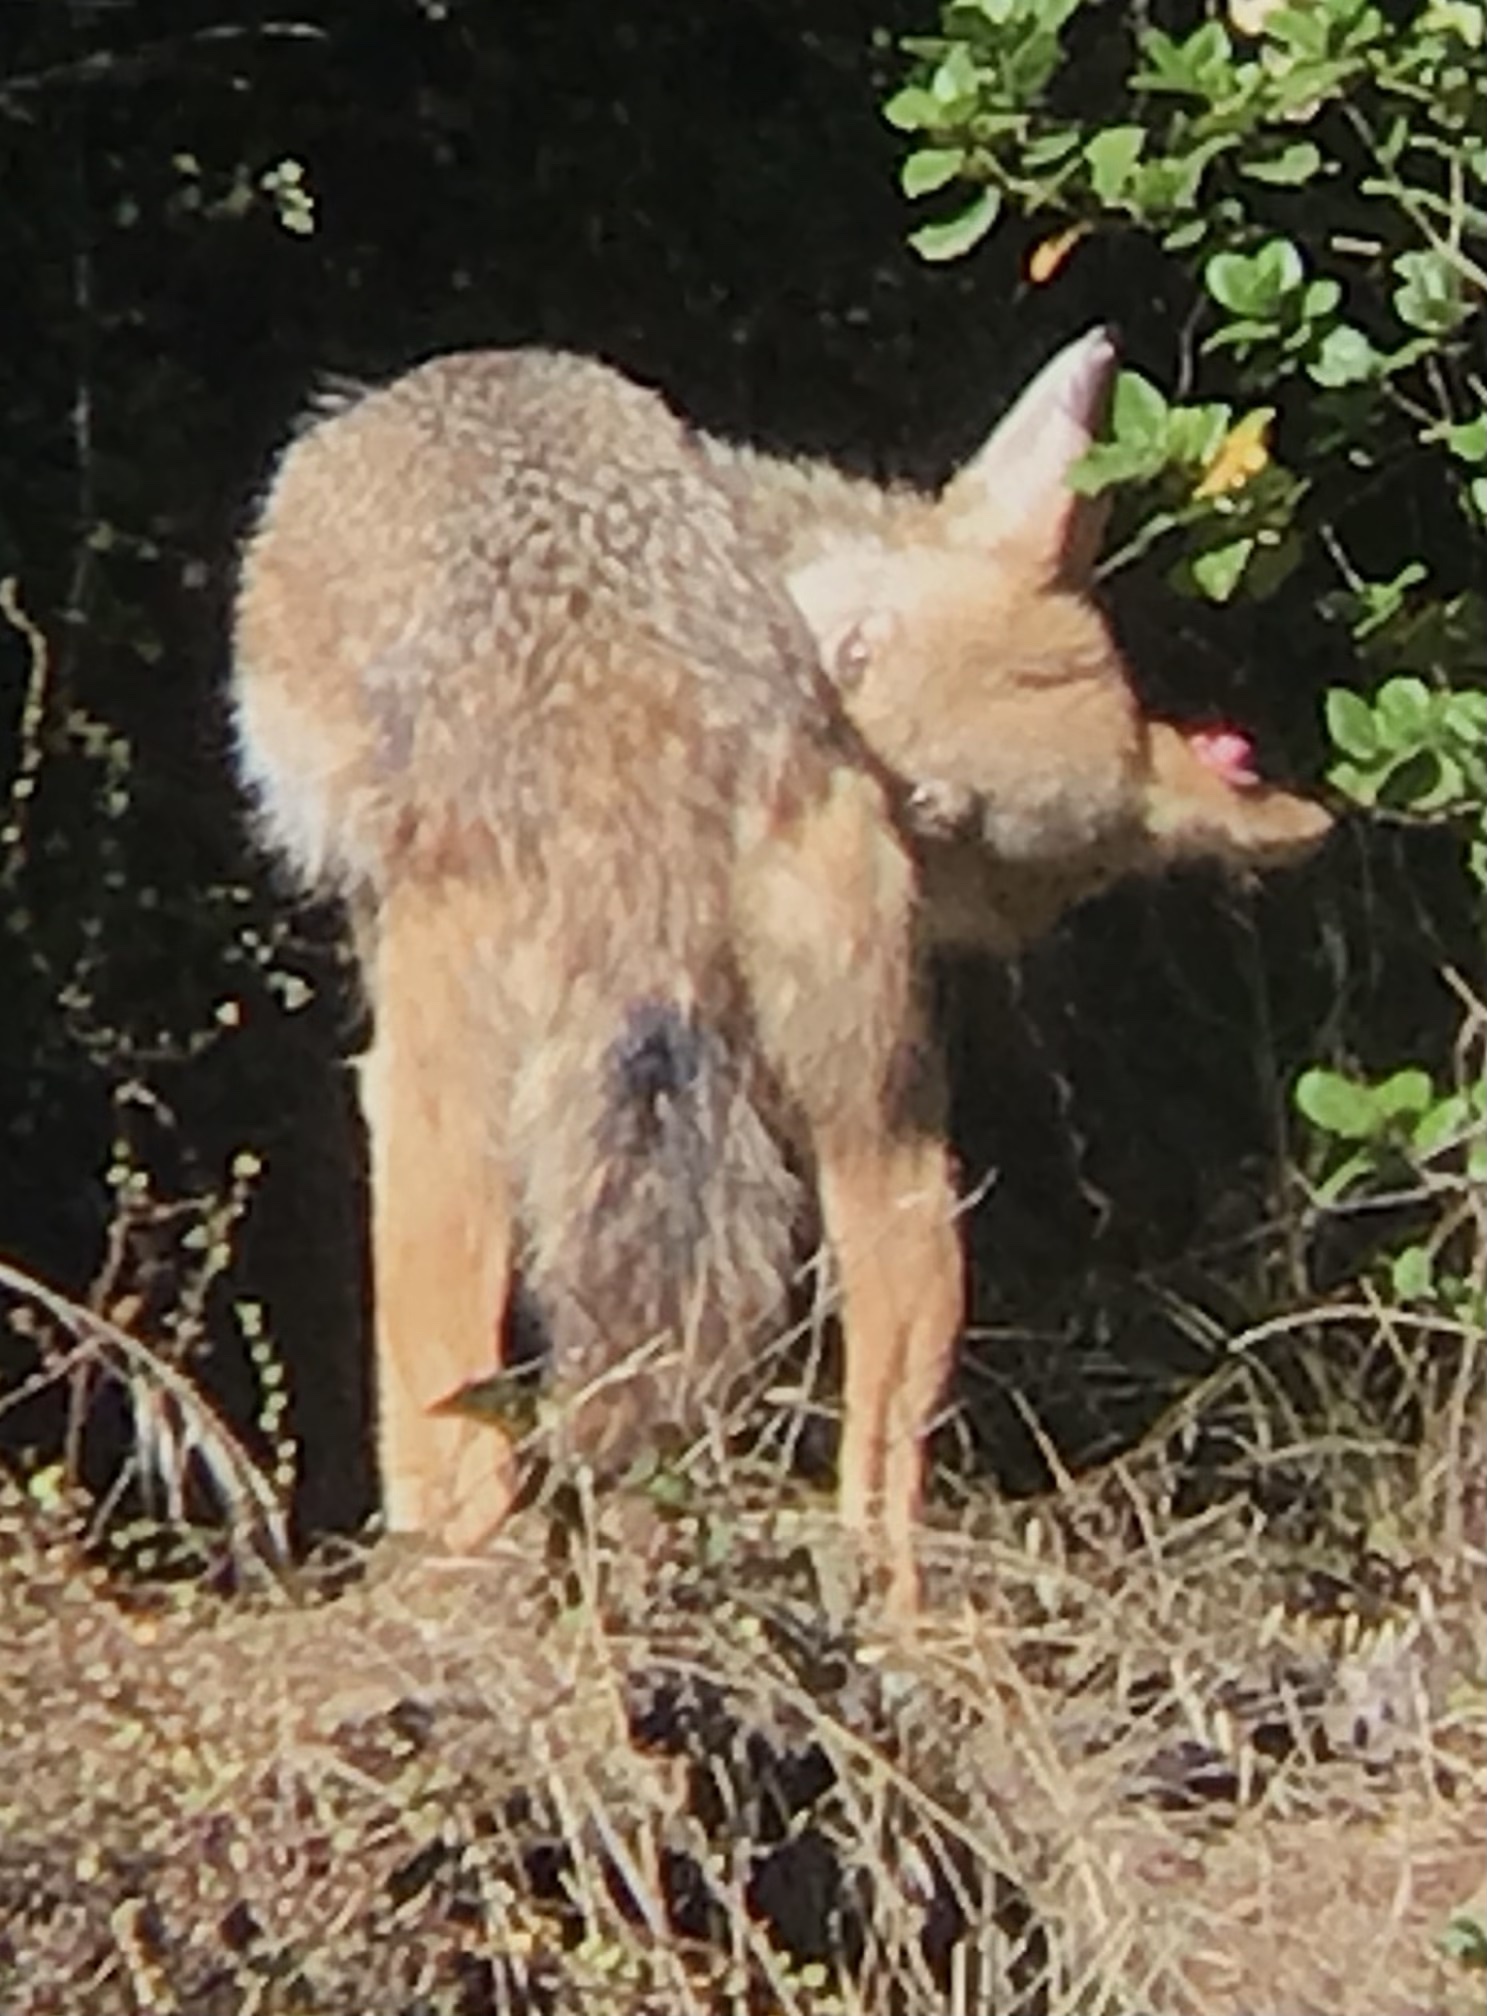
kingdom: Animalia
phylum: Chordata
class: Mammalia
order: Carnivora
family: Canidae
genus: Canis
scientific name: Canis latrans
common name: Coyote
